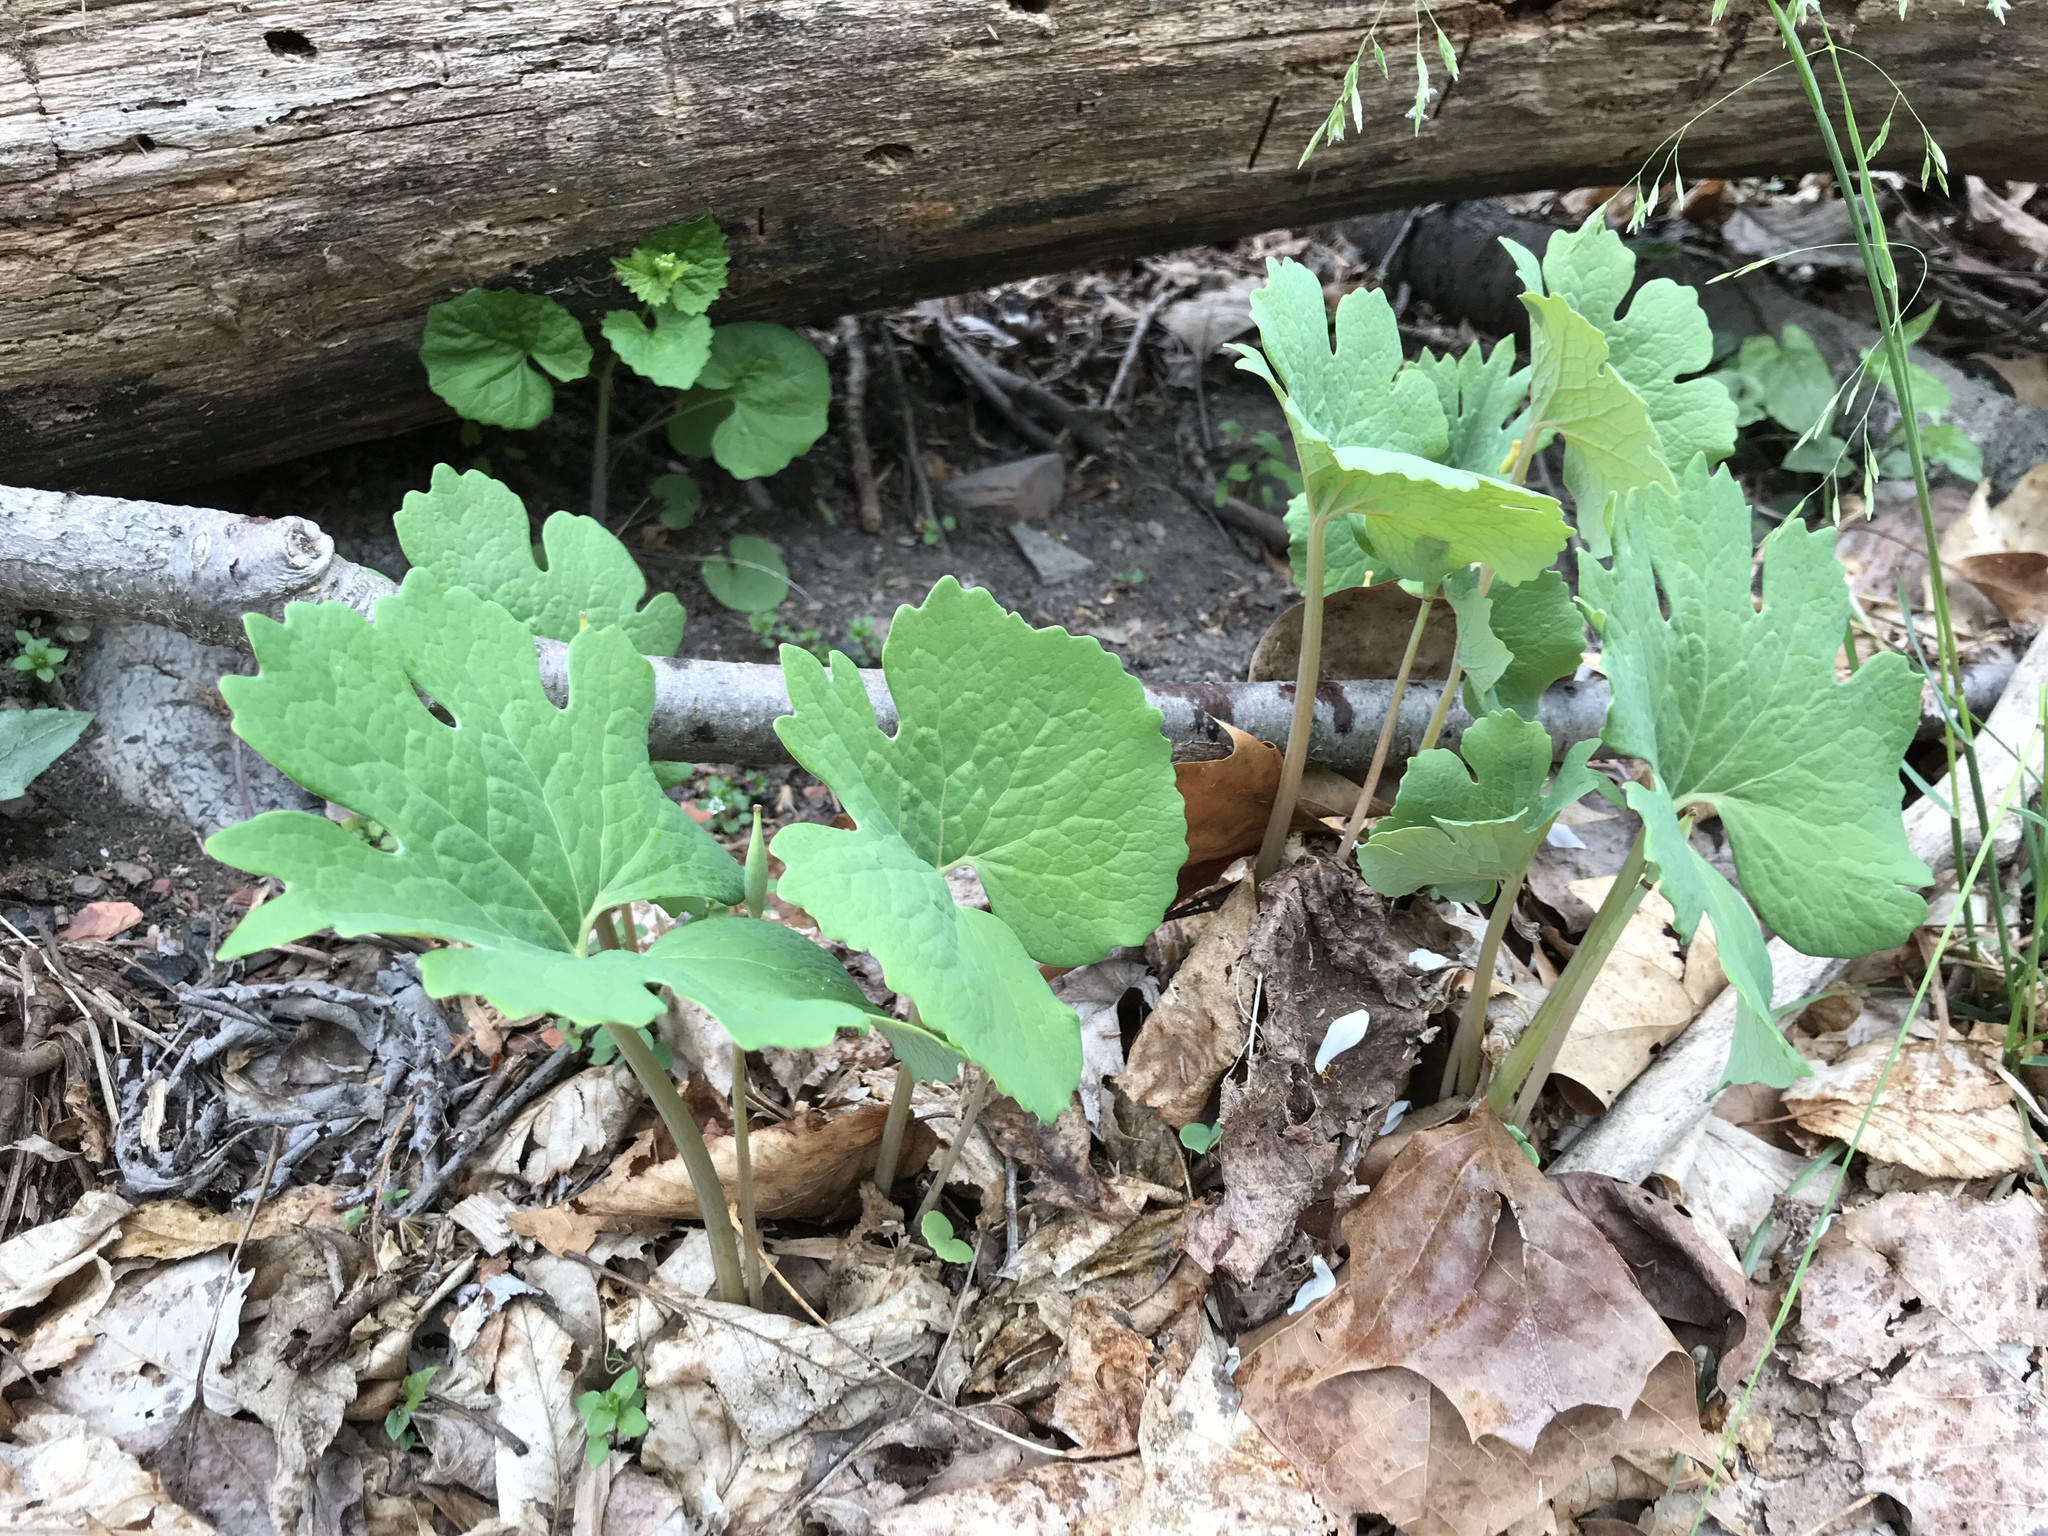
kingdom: Plantae
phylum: Tracheophyta
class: Magnoliopsida
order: Ranunculales
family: Papaveraceae
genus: Sanguinaria
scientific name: Sanguinaria canadensis
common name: Bloodroot
